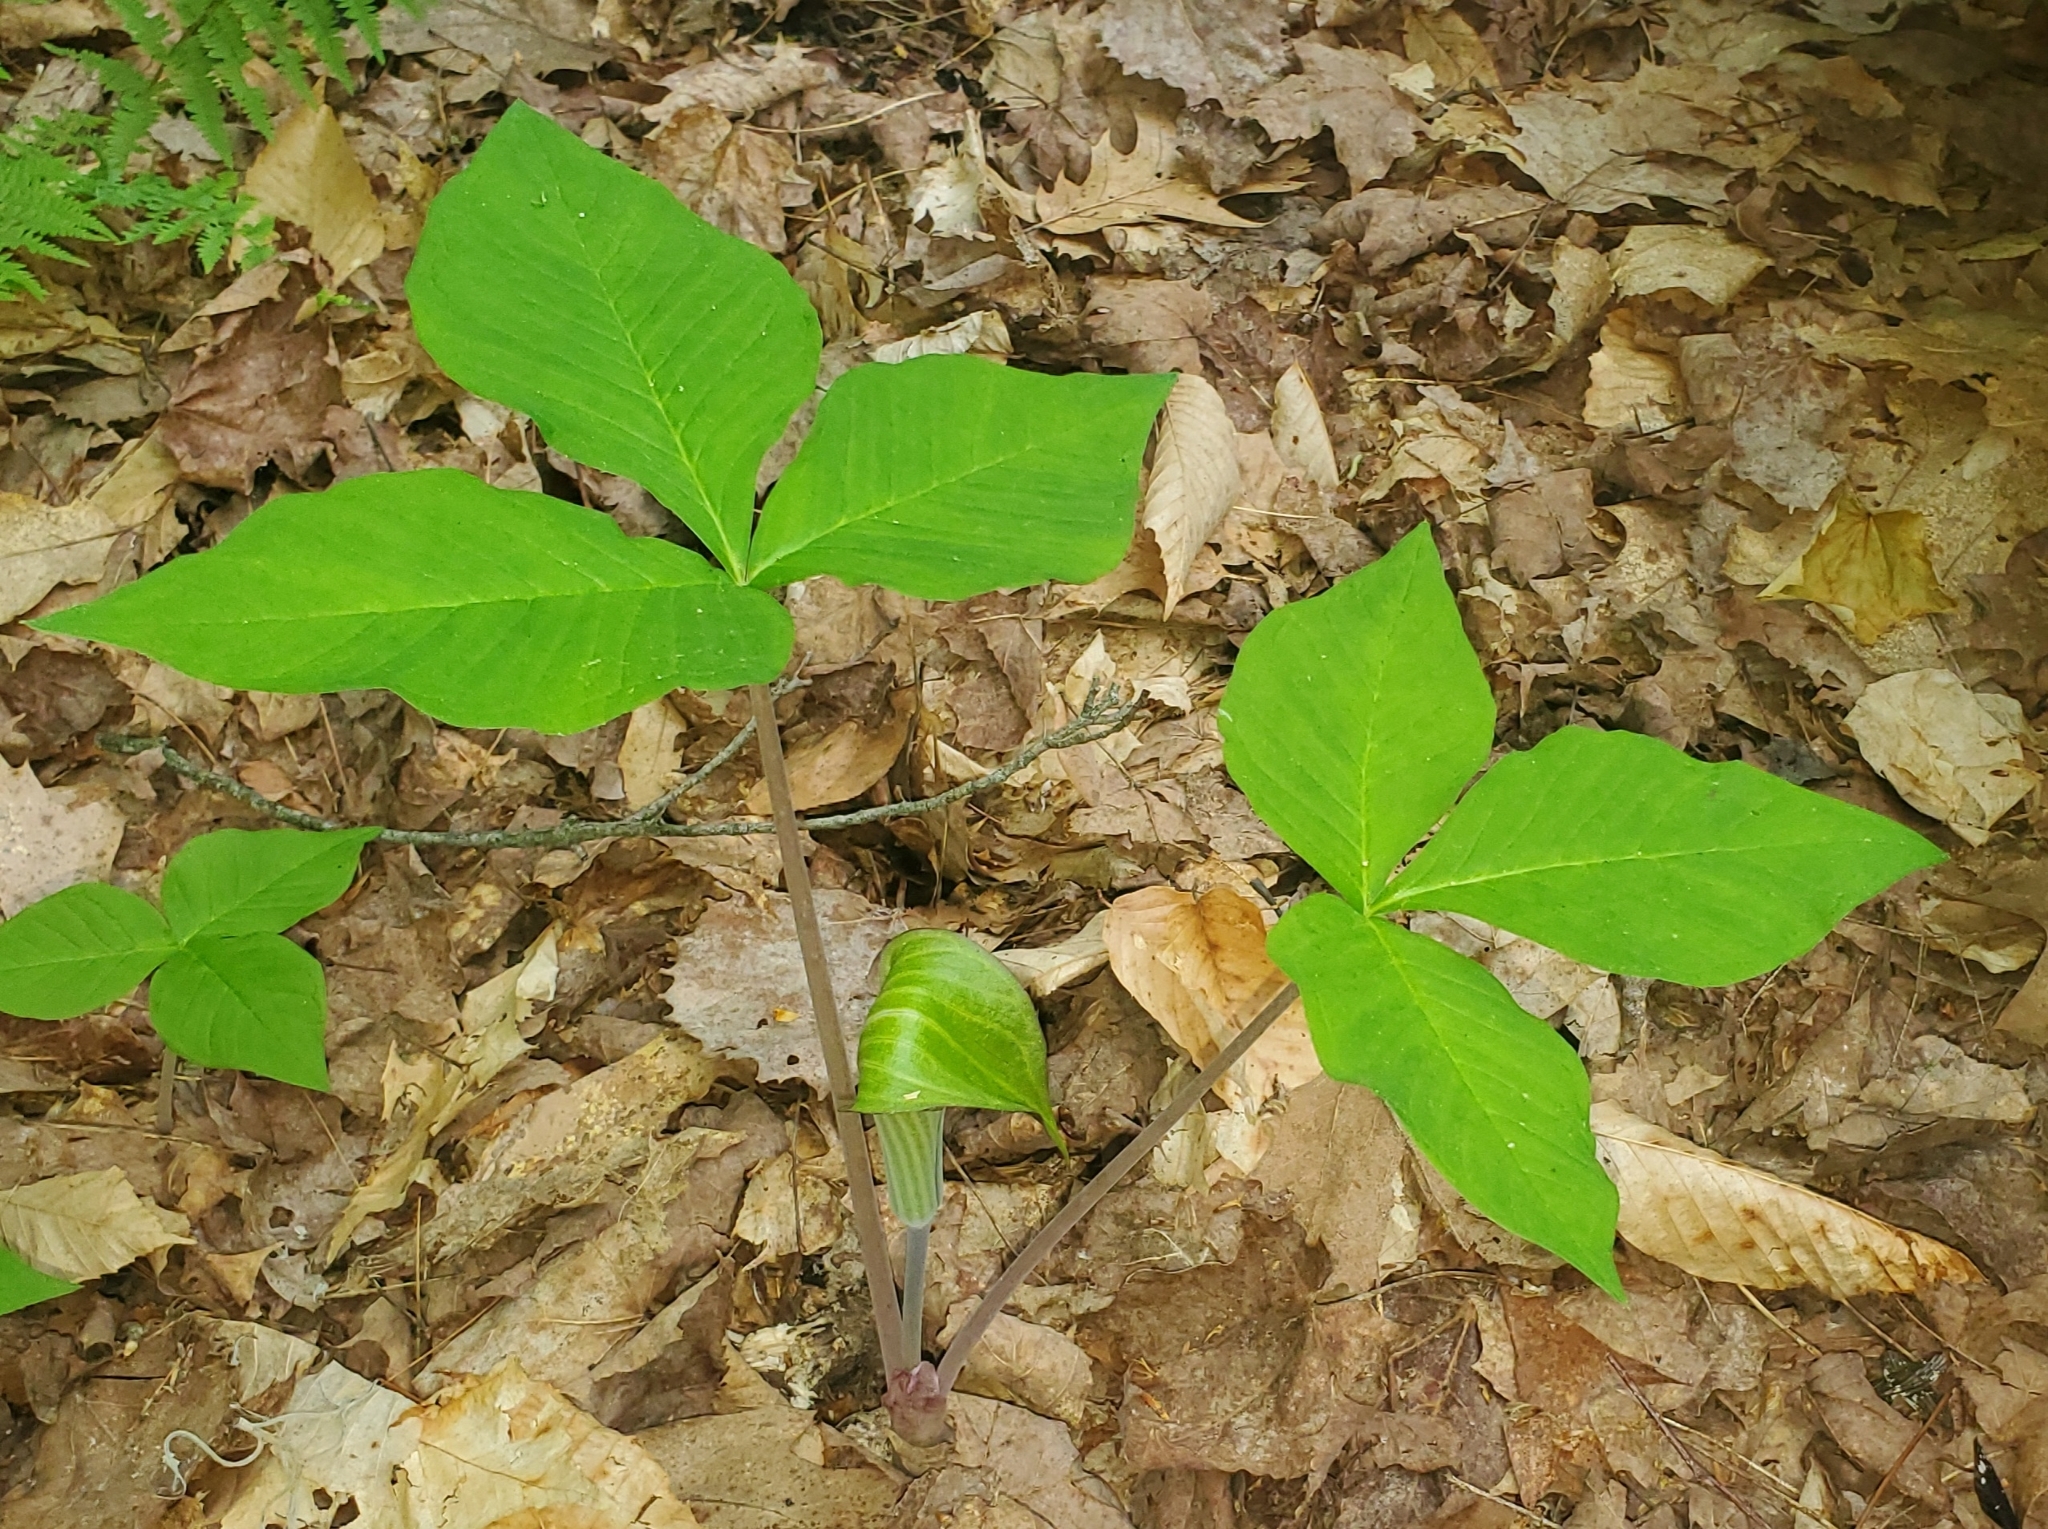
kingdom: Plantae
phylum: Tracheophyta
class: Liliopsida
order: Alismatales
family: Araceae
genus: Arisaema
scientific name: Arisaema triphyllum
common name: Jack-in-the-pulpit
